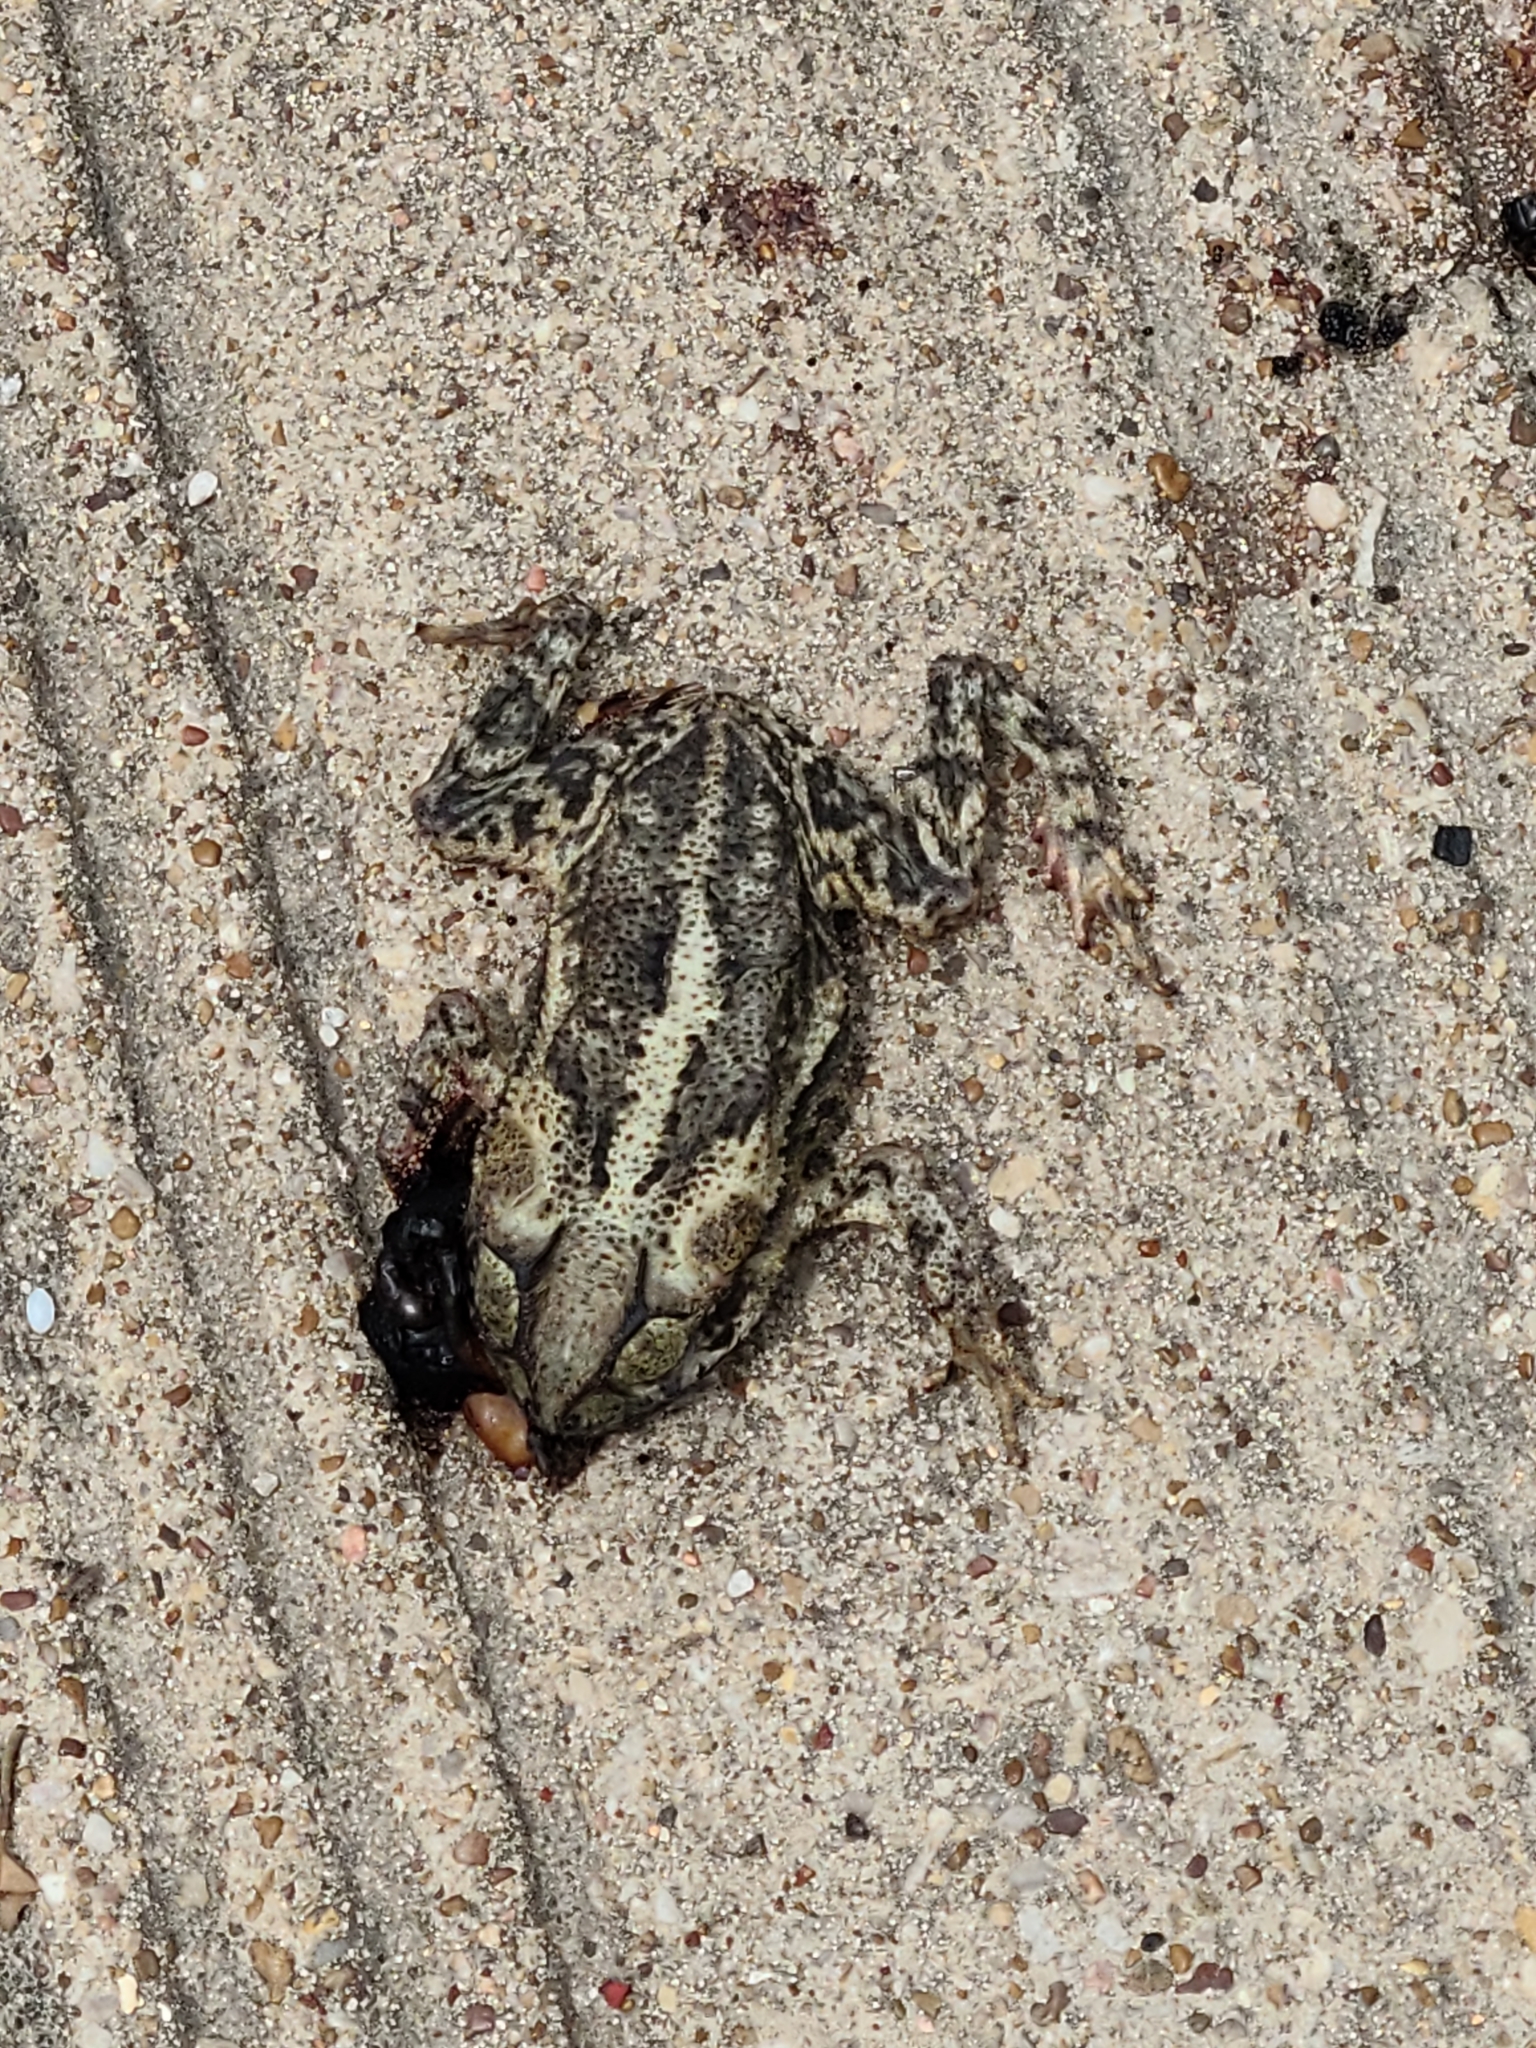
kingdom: Animalia
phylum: Chordata
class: Amphibia
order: Anura
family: Bufonidae
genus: Incilius
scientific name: Incilius nebulifer
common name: Gulf coast toad
